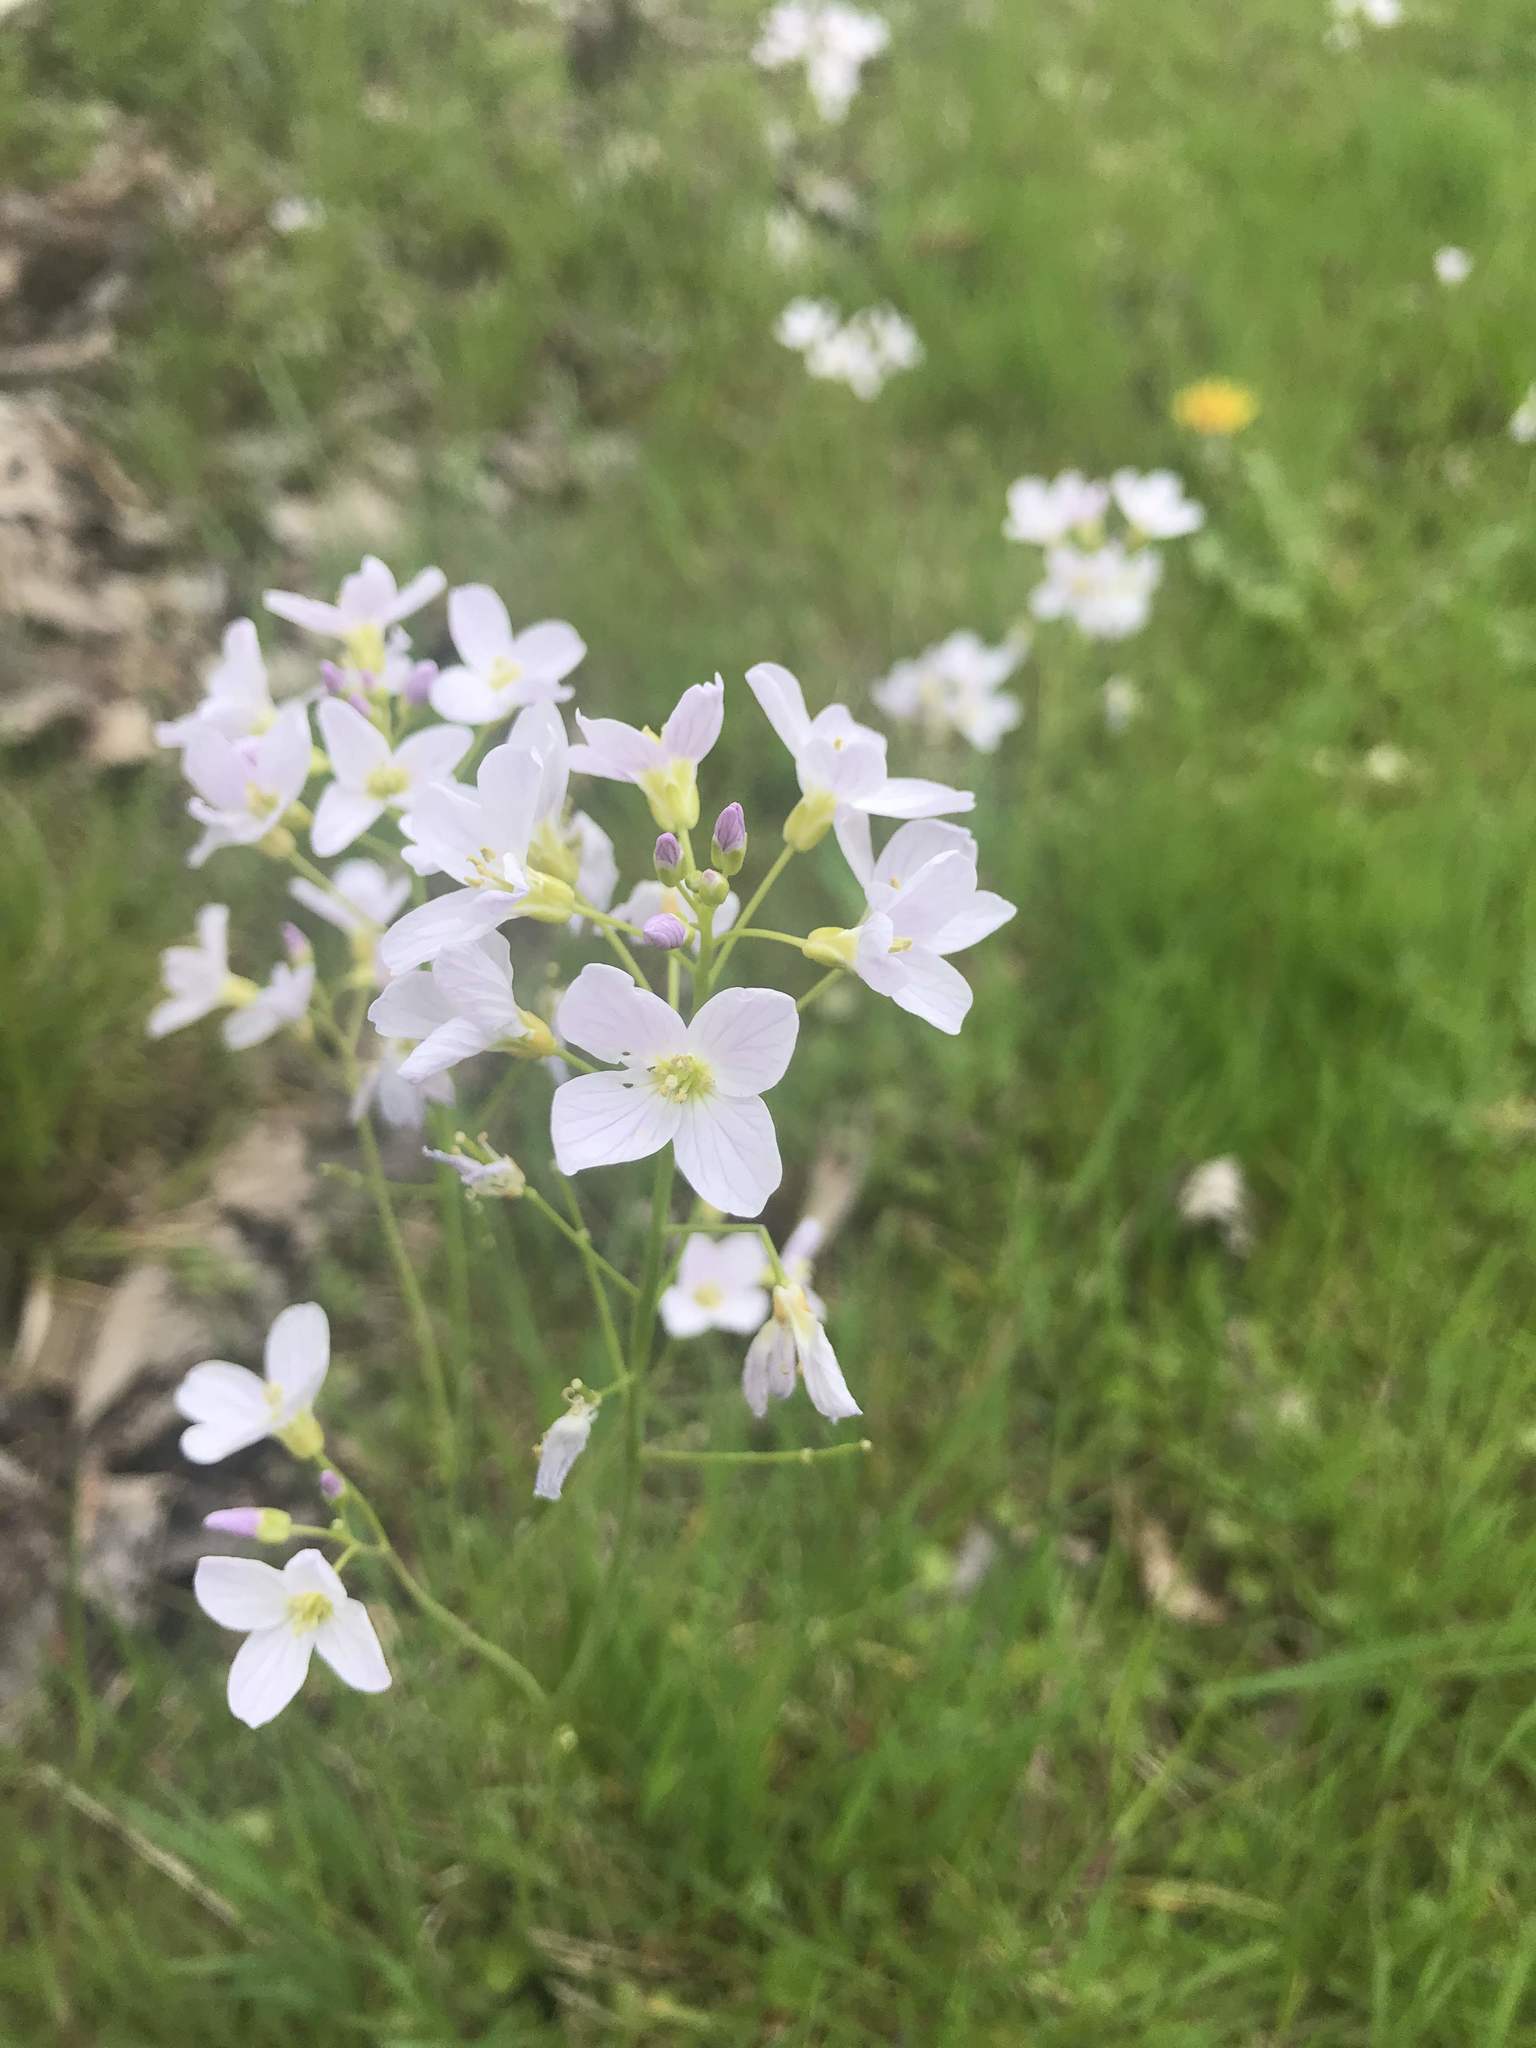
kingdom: Plantae
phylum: Tracheophyta
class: Magnoliopsida
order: Brassicales
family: Brassicaceae
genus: Cardamine
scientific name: Cardamine pratensis
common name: Cuckoo flower
